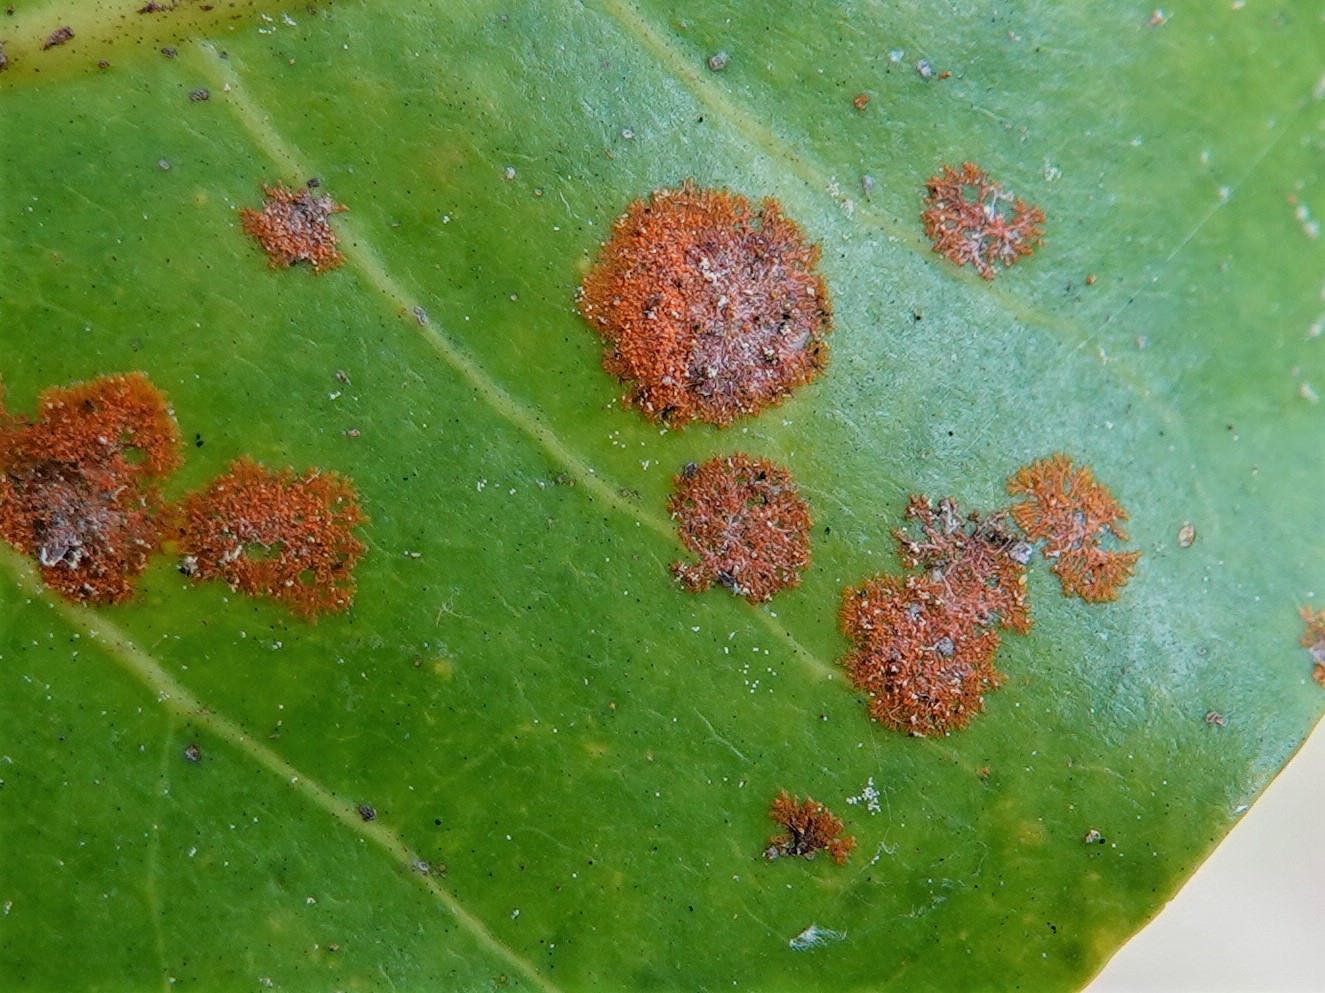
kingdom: Plantae
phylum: Chlorophyta
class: Ulvophyceae
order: Trentepohliales
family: Trentepohliaceae
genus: Cephaleuros
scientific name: Cephaleuros virescens
